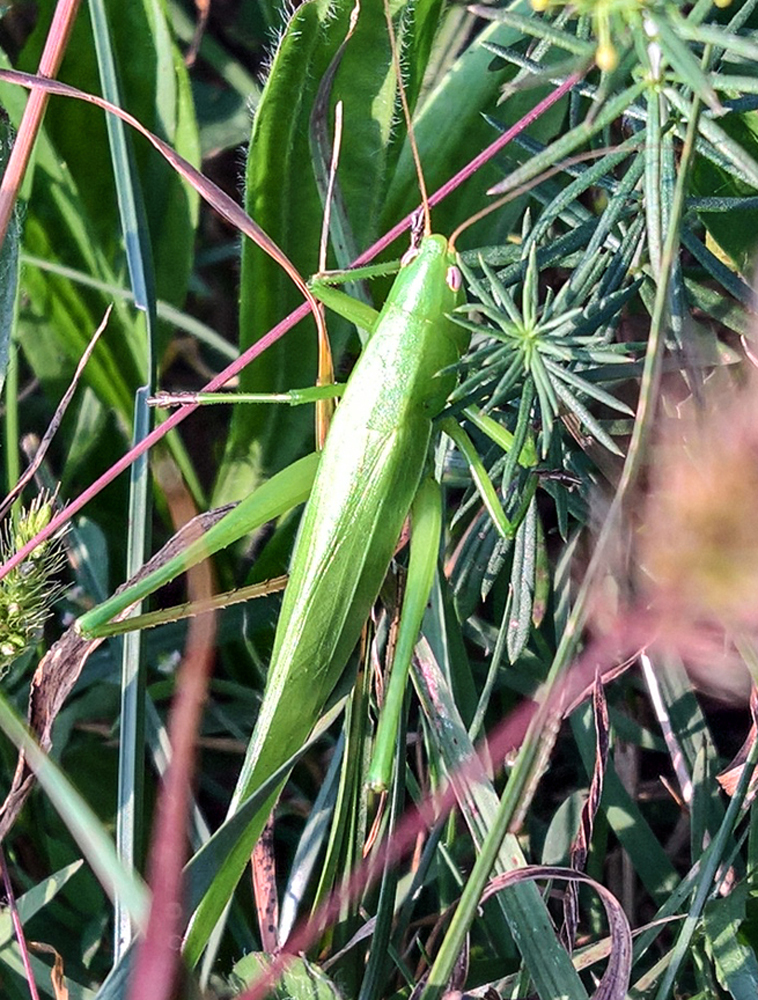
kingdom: Animalia
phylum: Arthropoda
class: Insecta
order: Orthoptera
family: Tettigoniidae
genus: Ruspolia
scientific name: Ruspolia nitidula
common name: Large conehead
